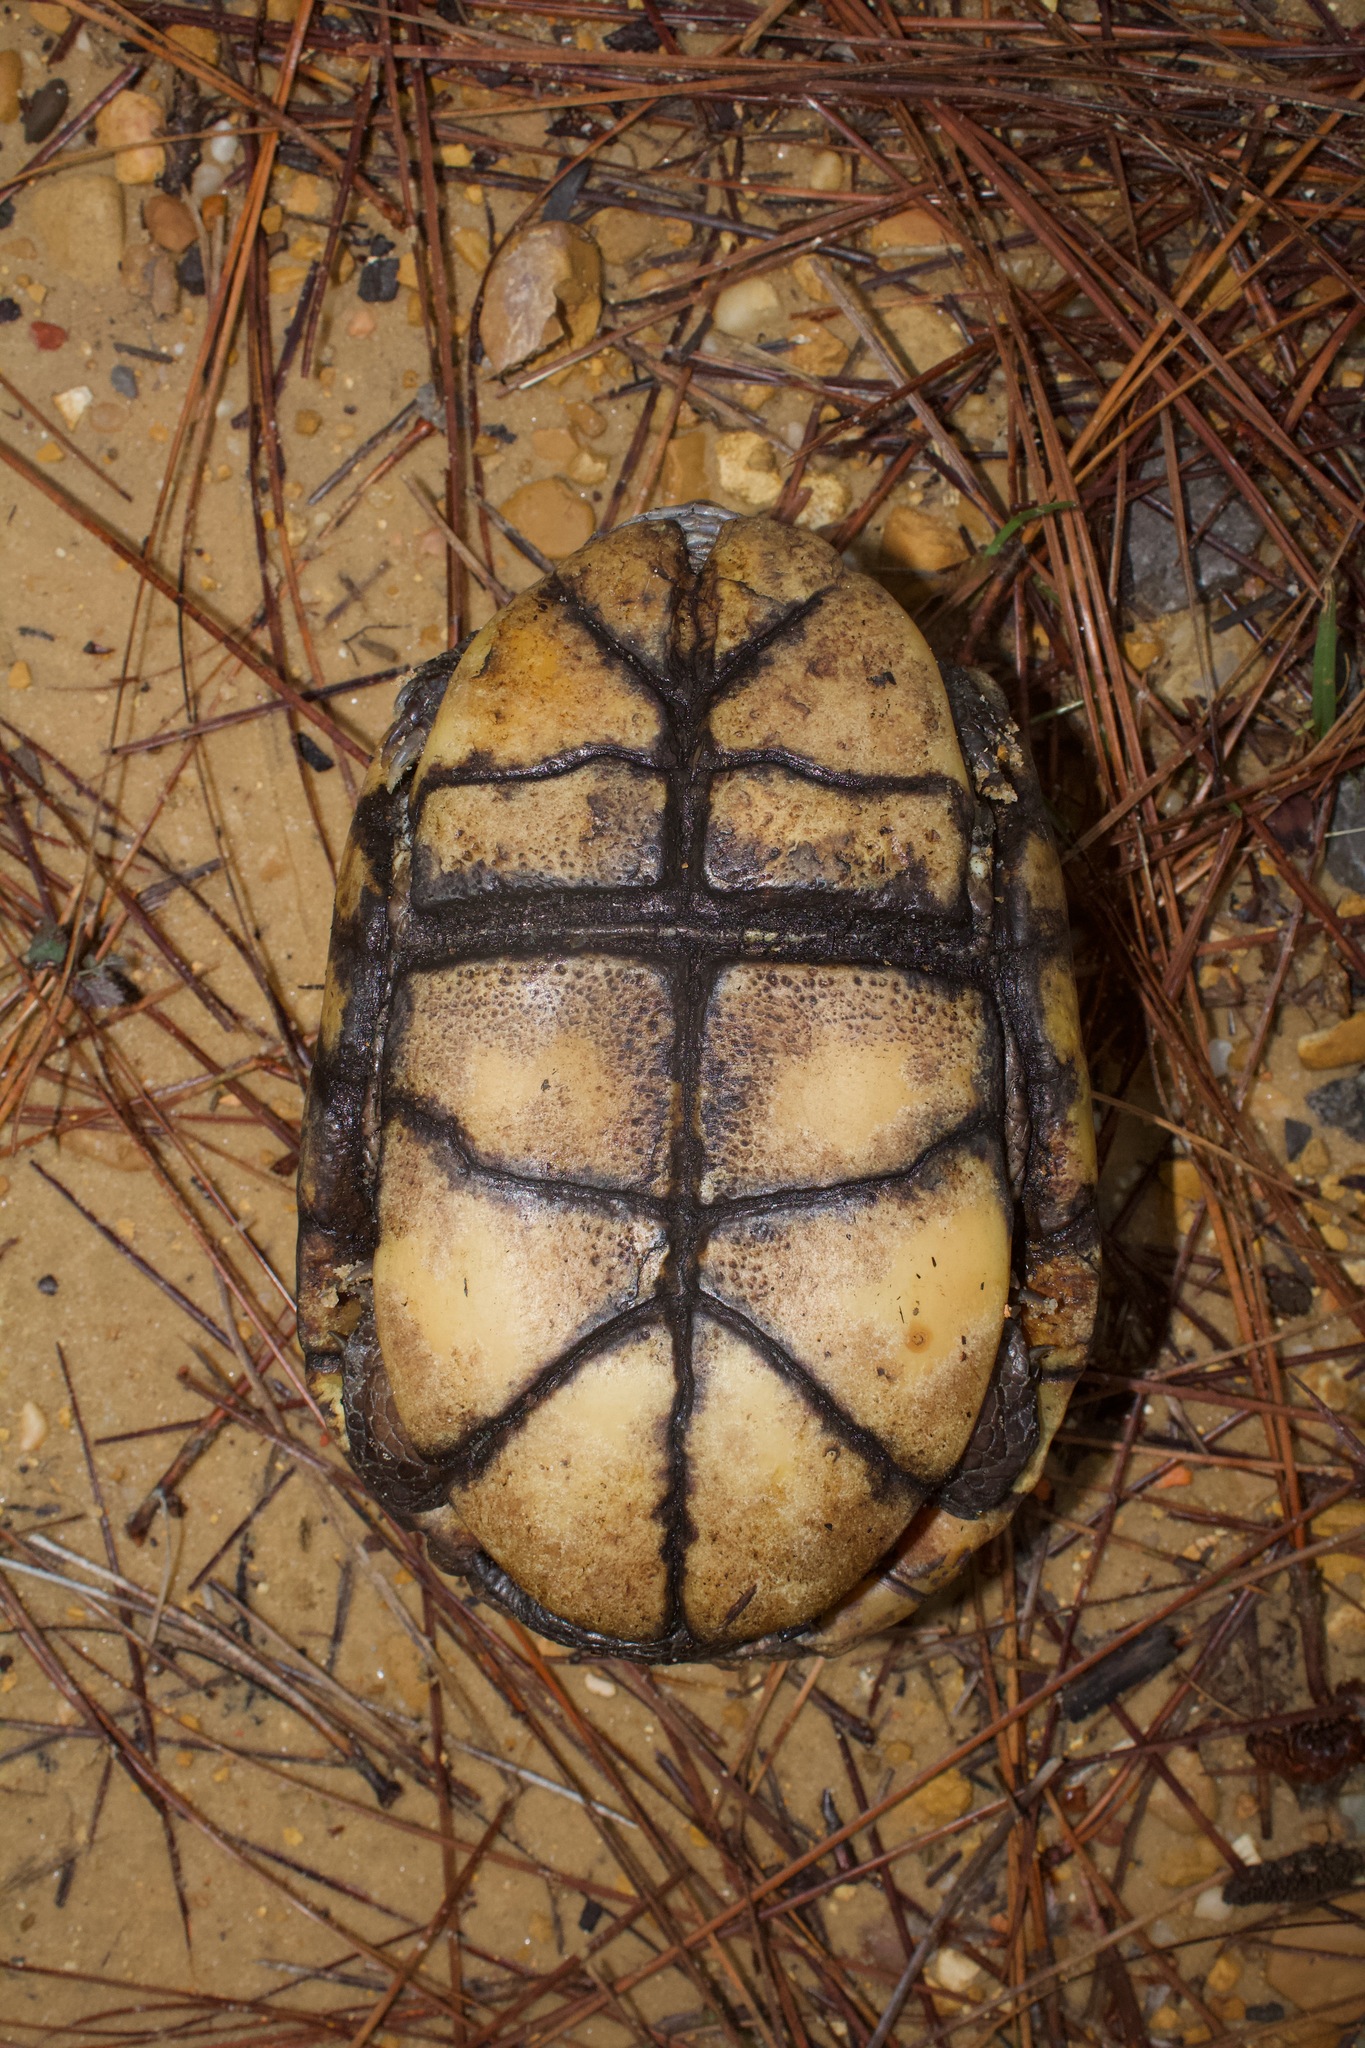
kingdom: Animalia
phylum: Chordata
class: Testudines
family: Emydidae
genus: Terrapene
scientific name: Terrapene carolina
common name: Common box turtle
